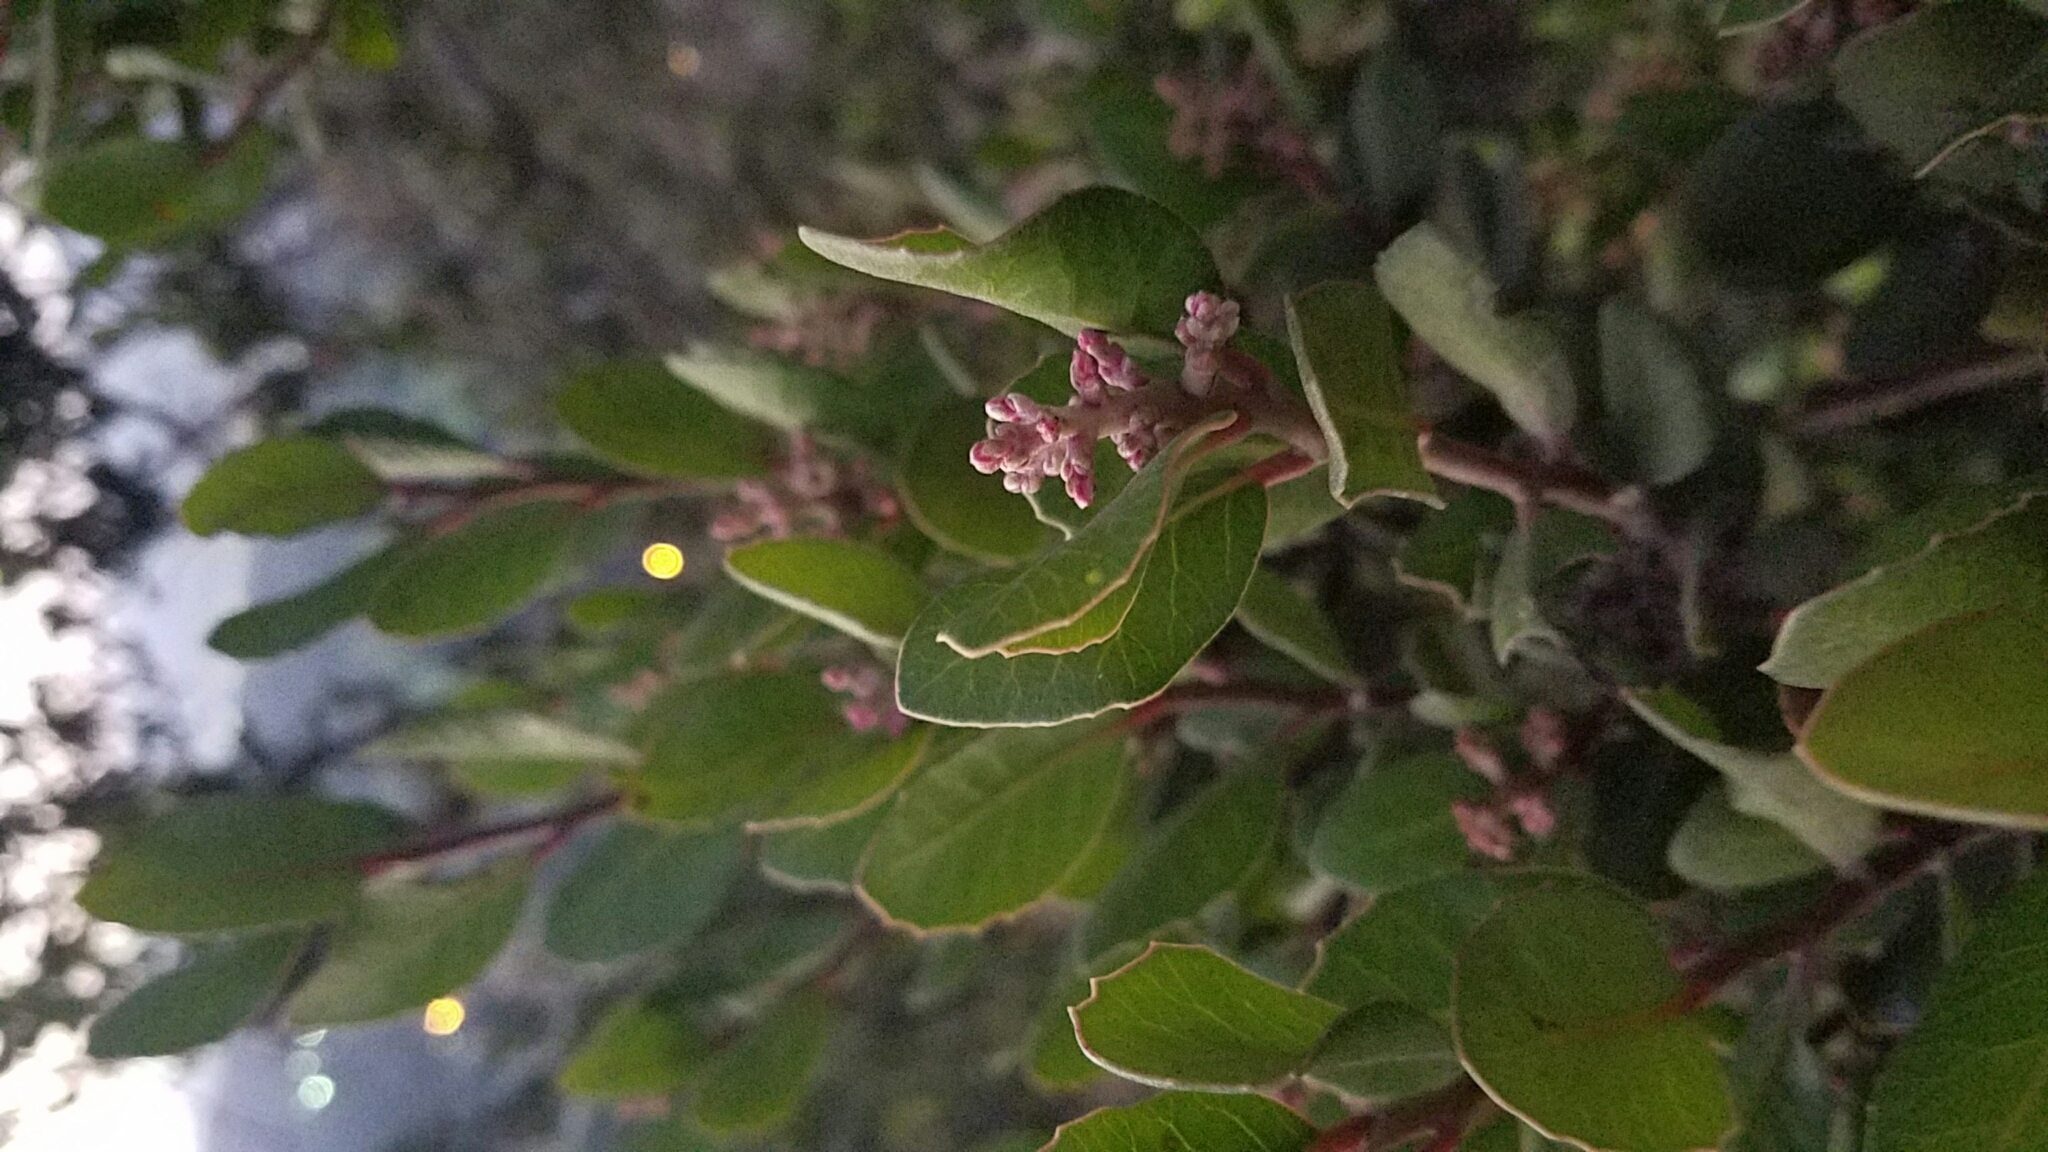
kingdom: Plantae
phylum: Tracheophyta
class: Magnoliopsida
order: Sapindales
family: Anacardiaceae
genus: Rhus
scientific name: Rhus integrifolia
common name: Lemonade sumac
